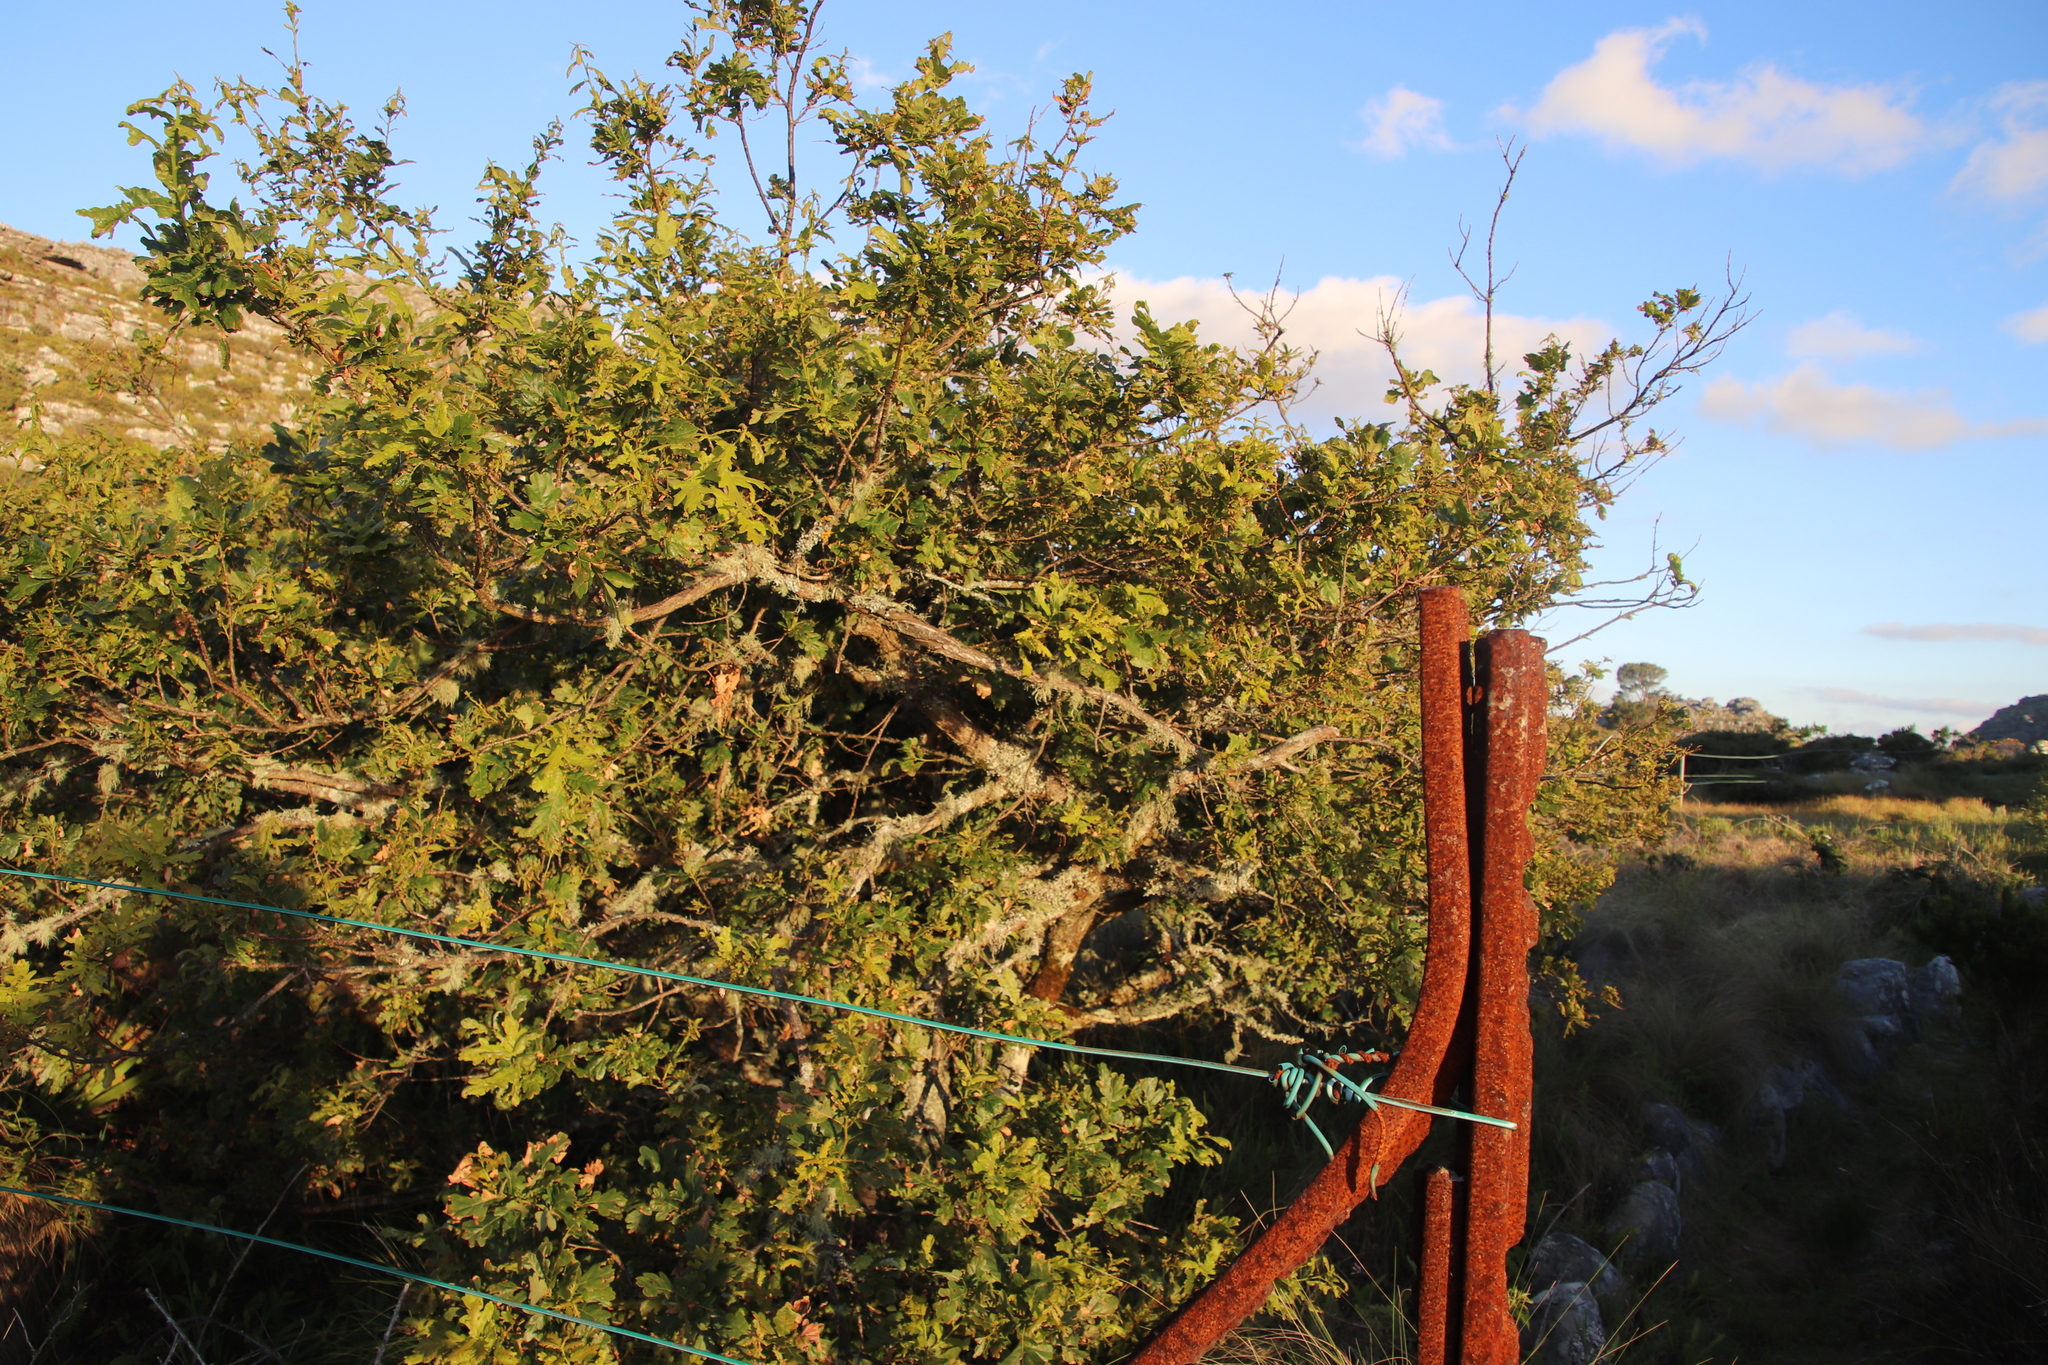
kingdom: Plantae
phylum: Tracheophyta
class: Magnoliopsida
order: Fagales
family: Fagaceae
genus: Quercus
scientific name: Quercus robur
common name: Pedunculate oak
